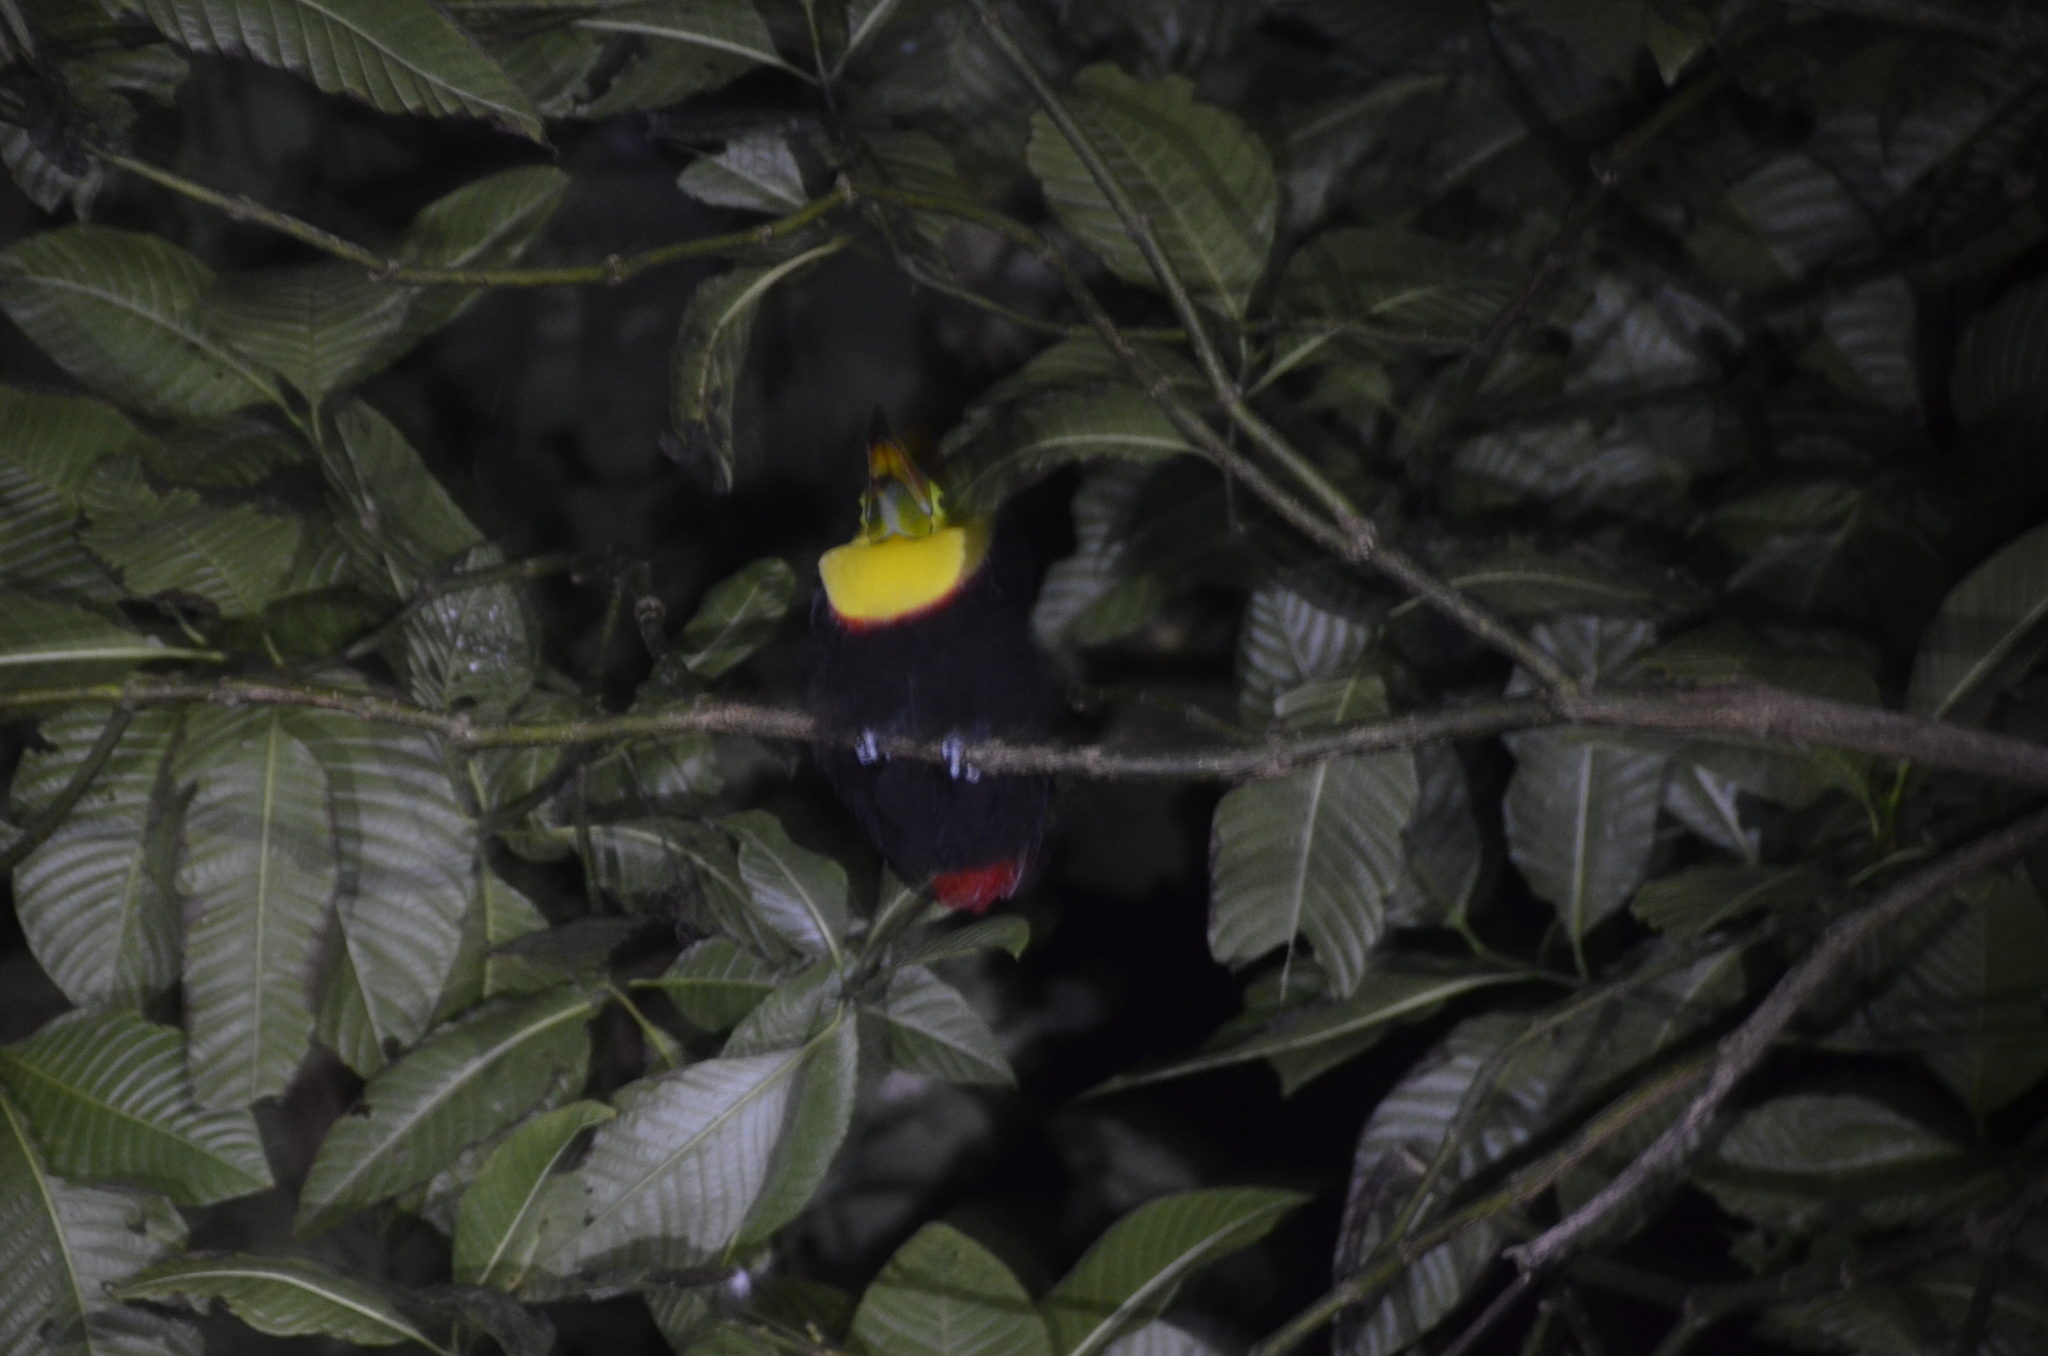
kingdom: Animalia
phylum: Chordata
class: Aves
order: Piciformes
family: Ramphastidae
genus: Ramphastos
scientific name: Ramphastos sulfuratus
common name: Keel-billed toucan
